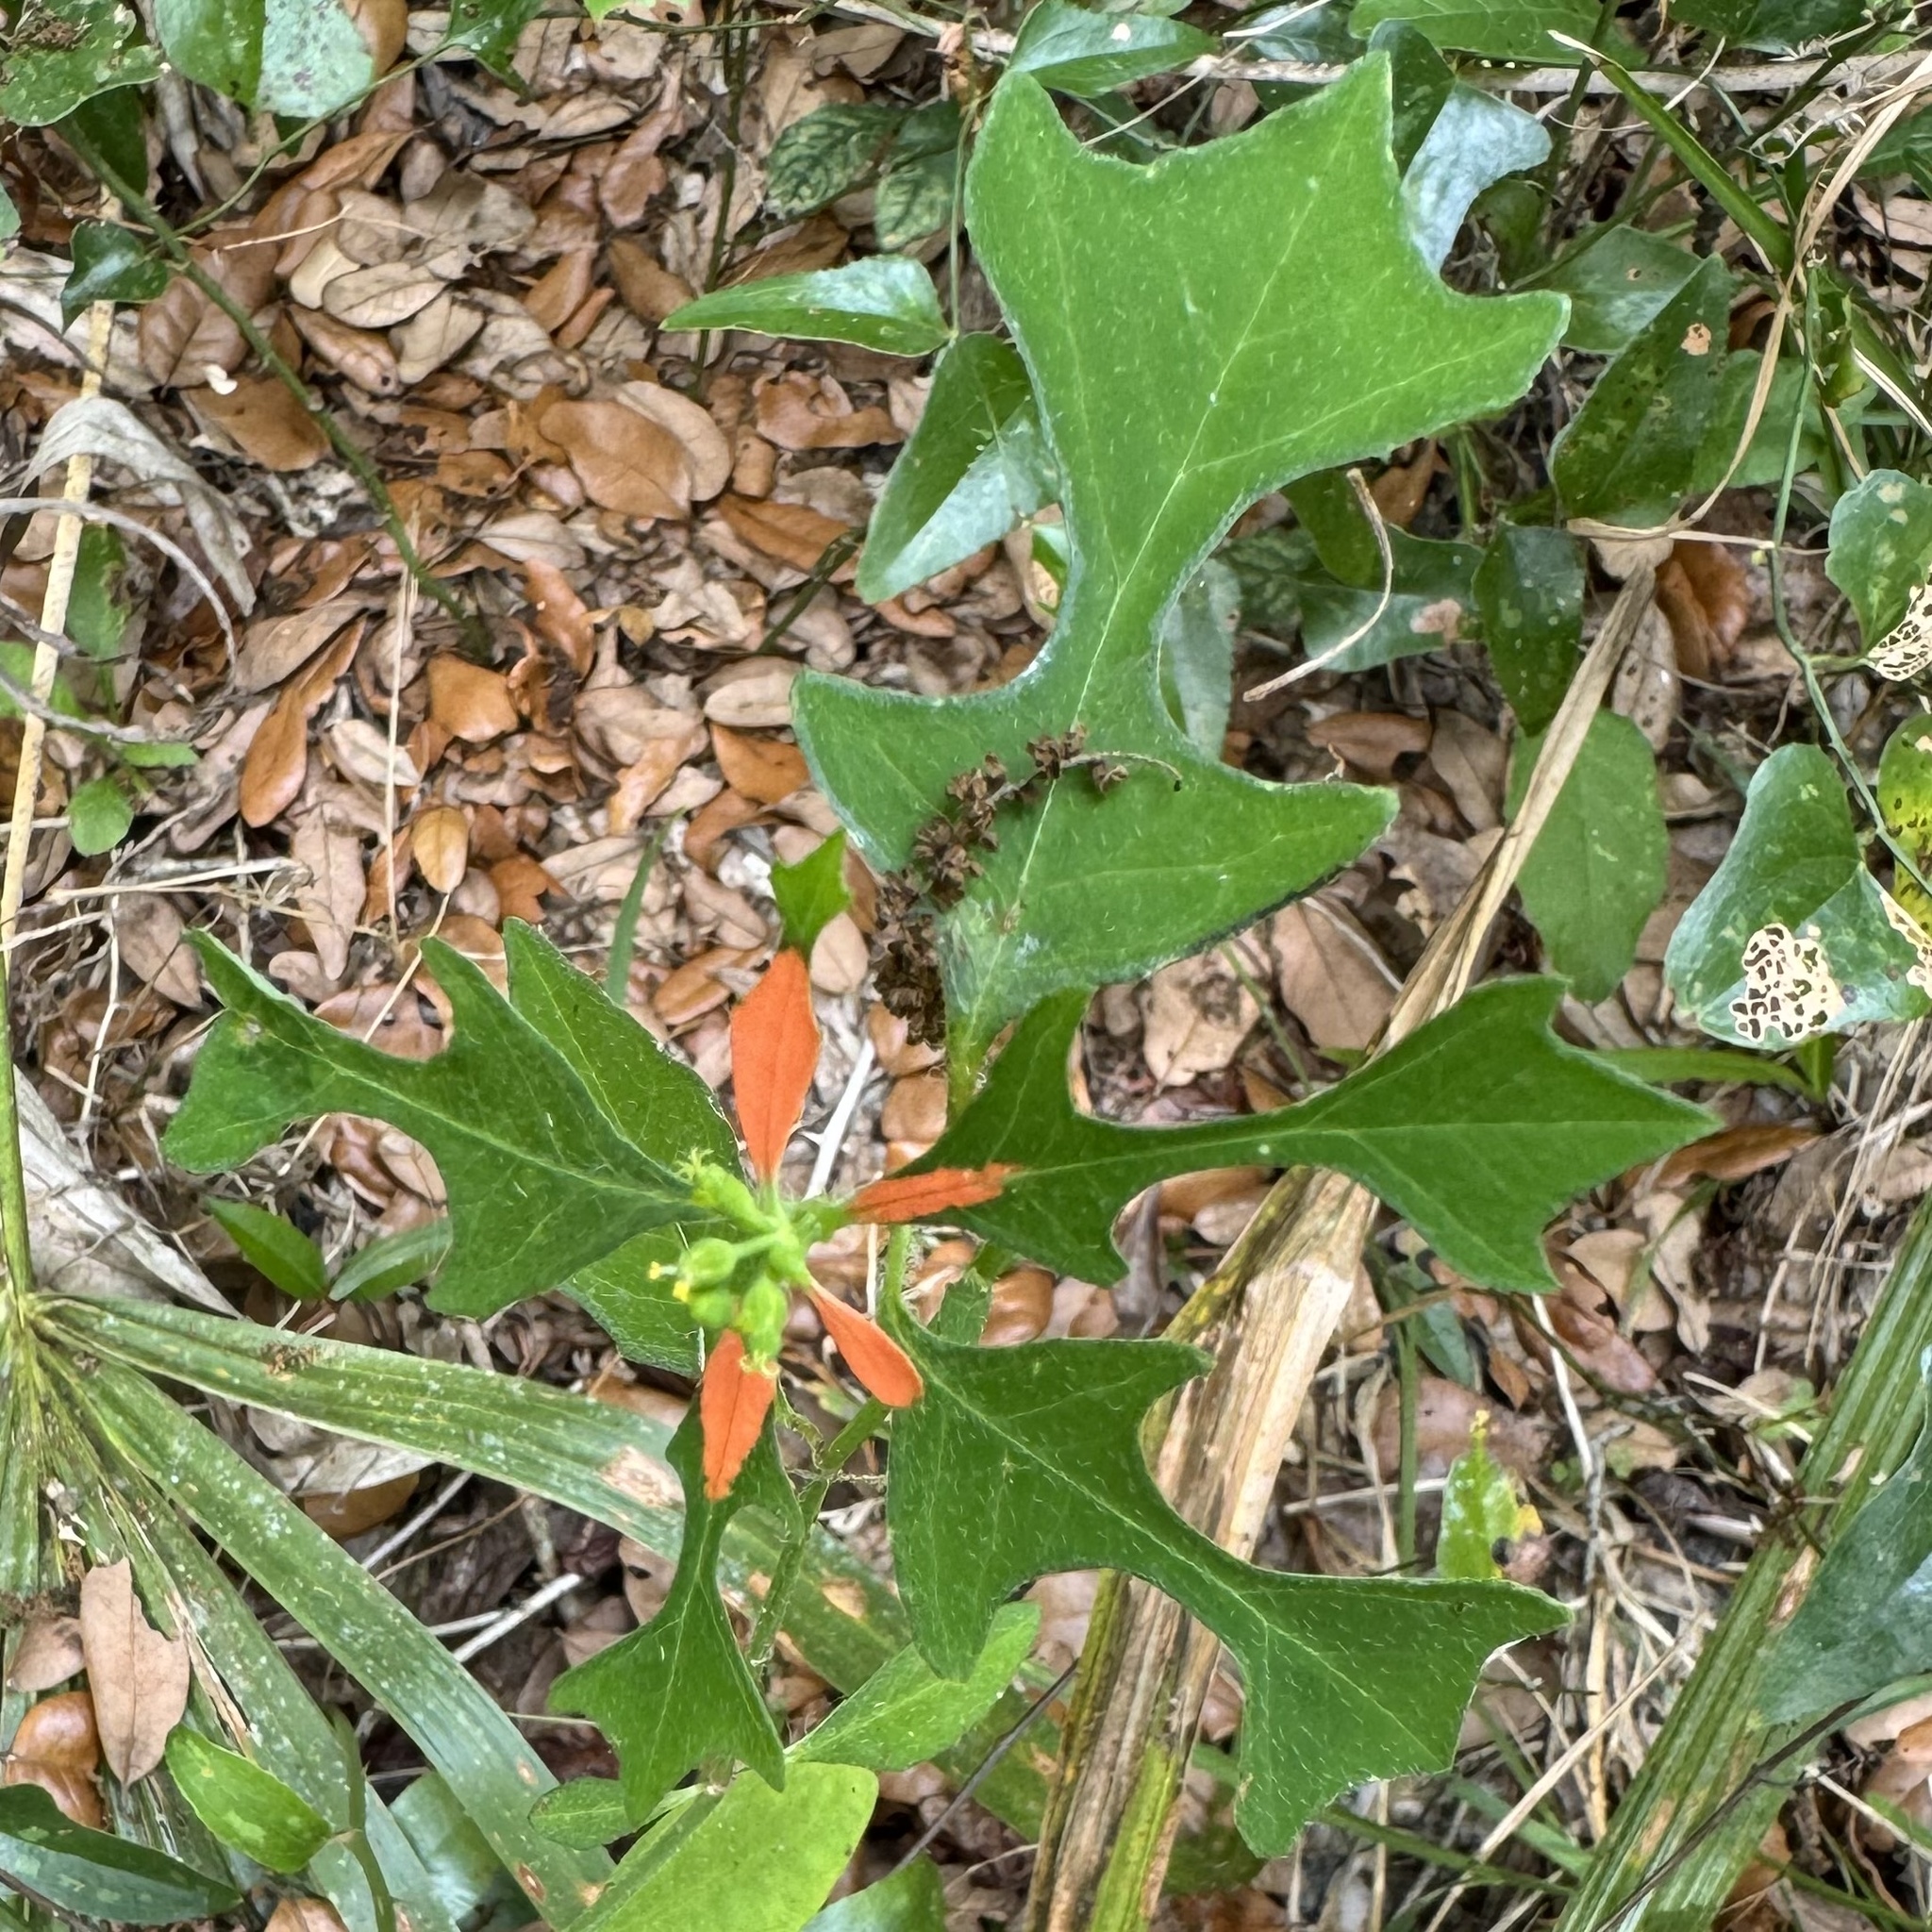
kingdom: Plantae
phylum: Tracheophyta
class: Magnoliopsida
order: Malpighiales
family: Euphorbiaceae
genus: Euphorbia
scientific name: Euphorbia heterophylla
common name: Mexican fireplant
